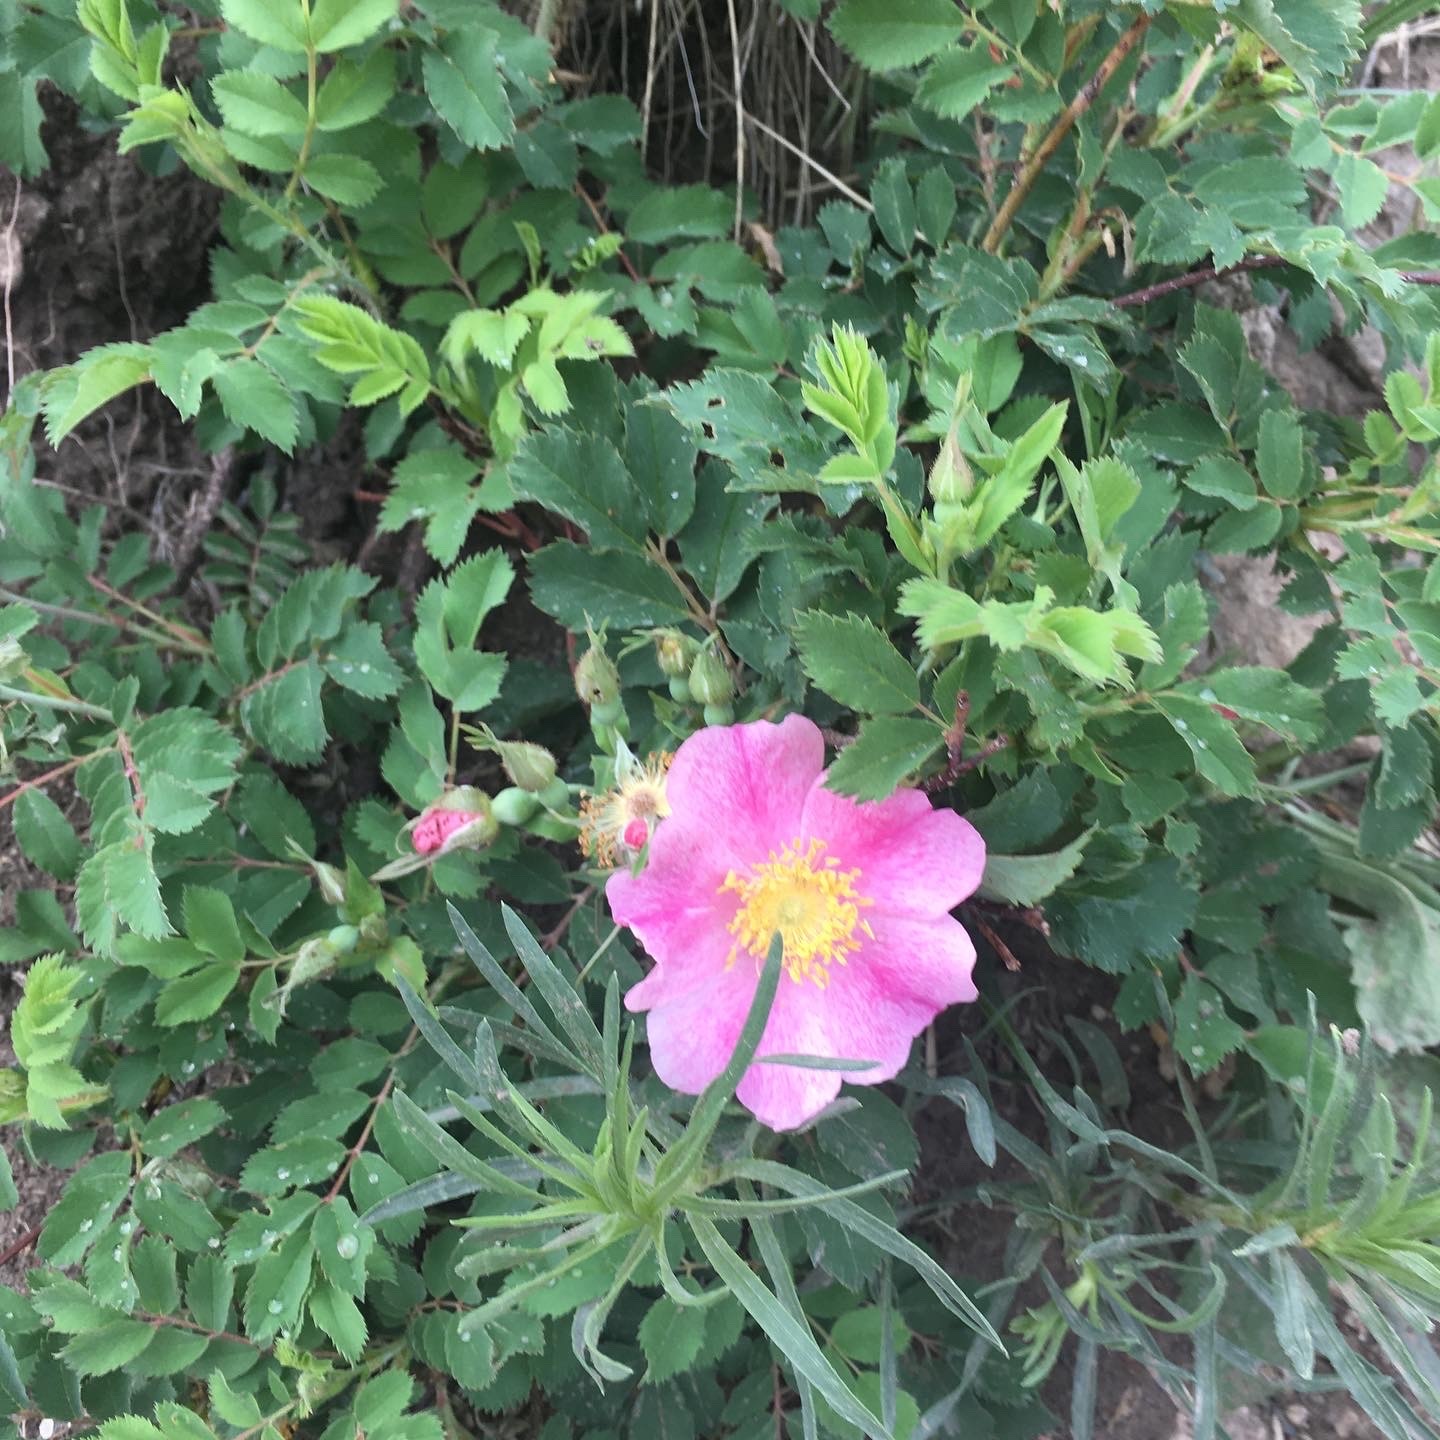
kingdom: Plantae
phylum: Tracheophyta
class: Magnoliopsida
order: Rosales
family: Rosaceae
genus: Rosa
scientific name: Rosa arkansana
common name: Prairie rose
